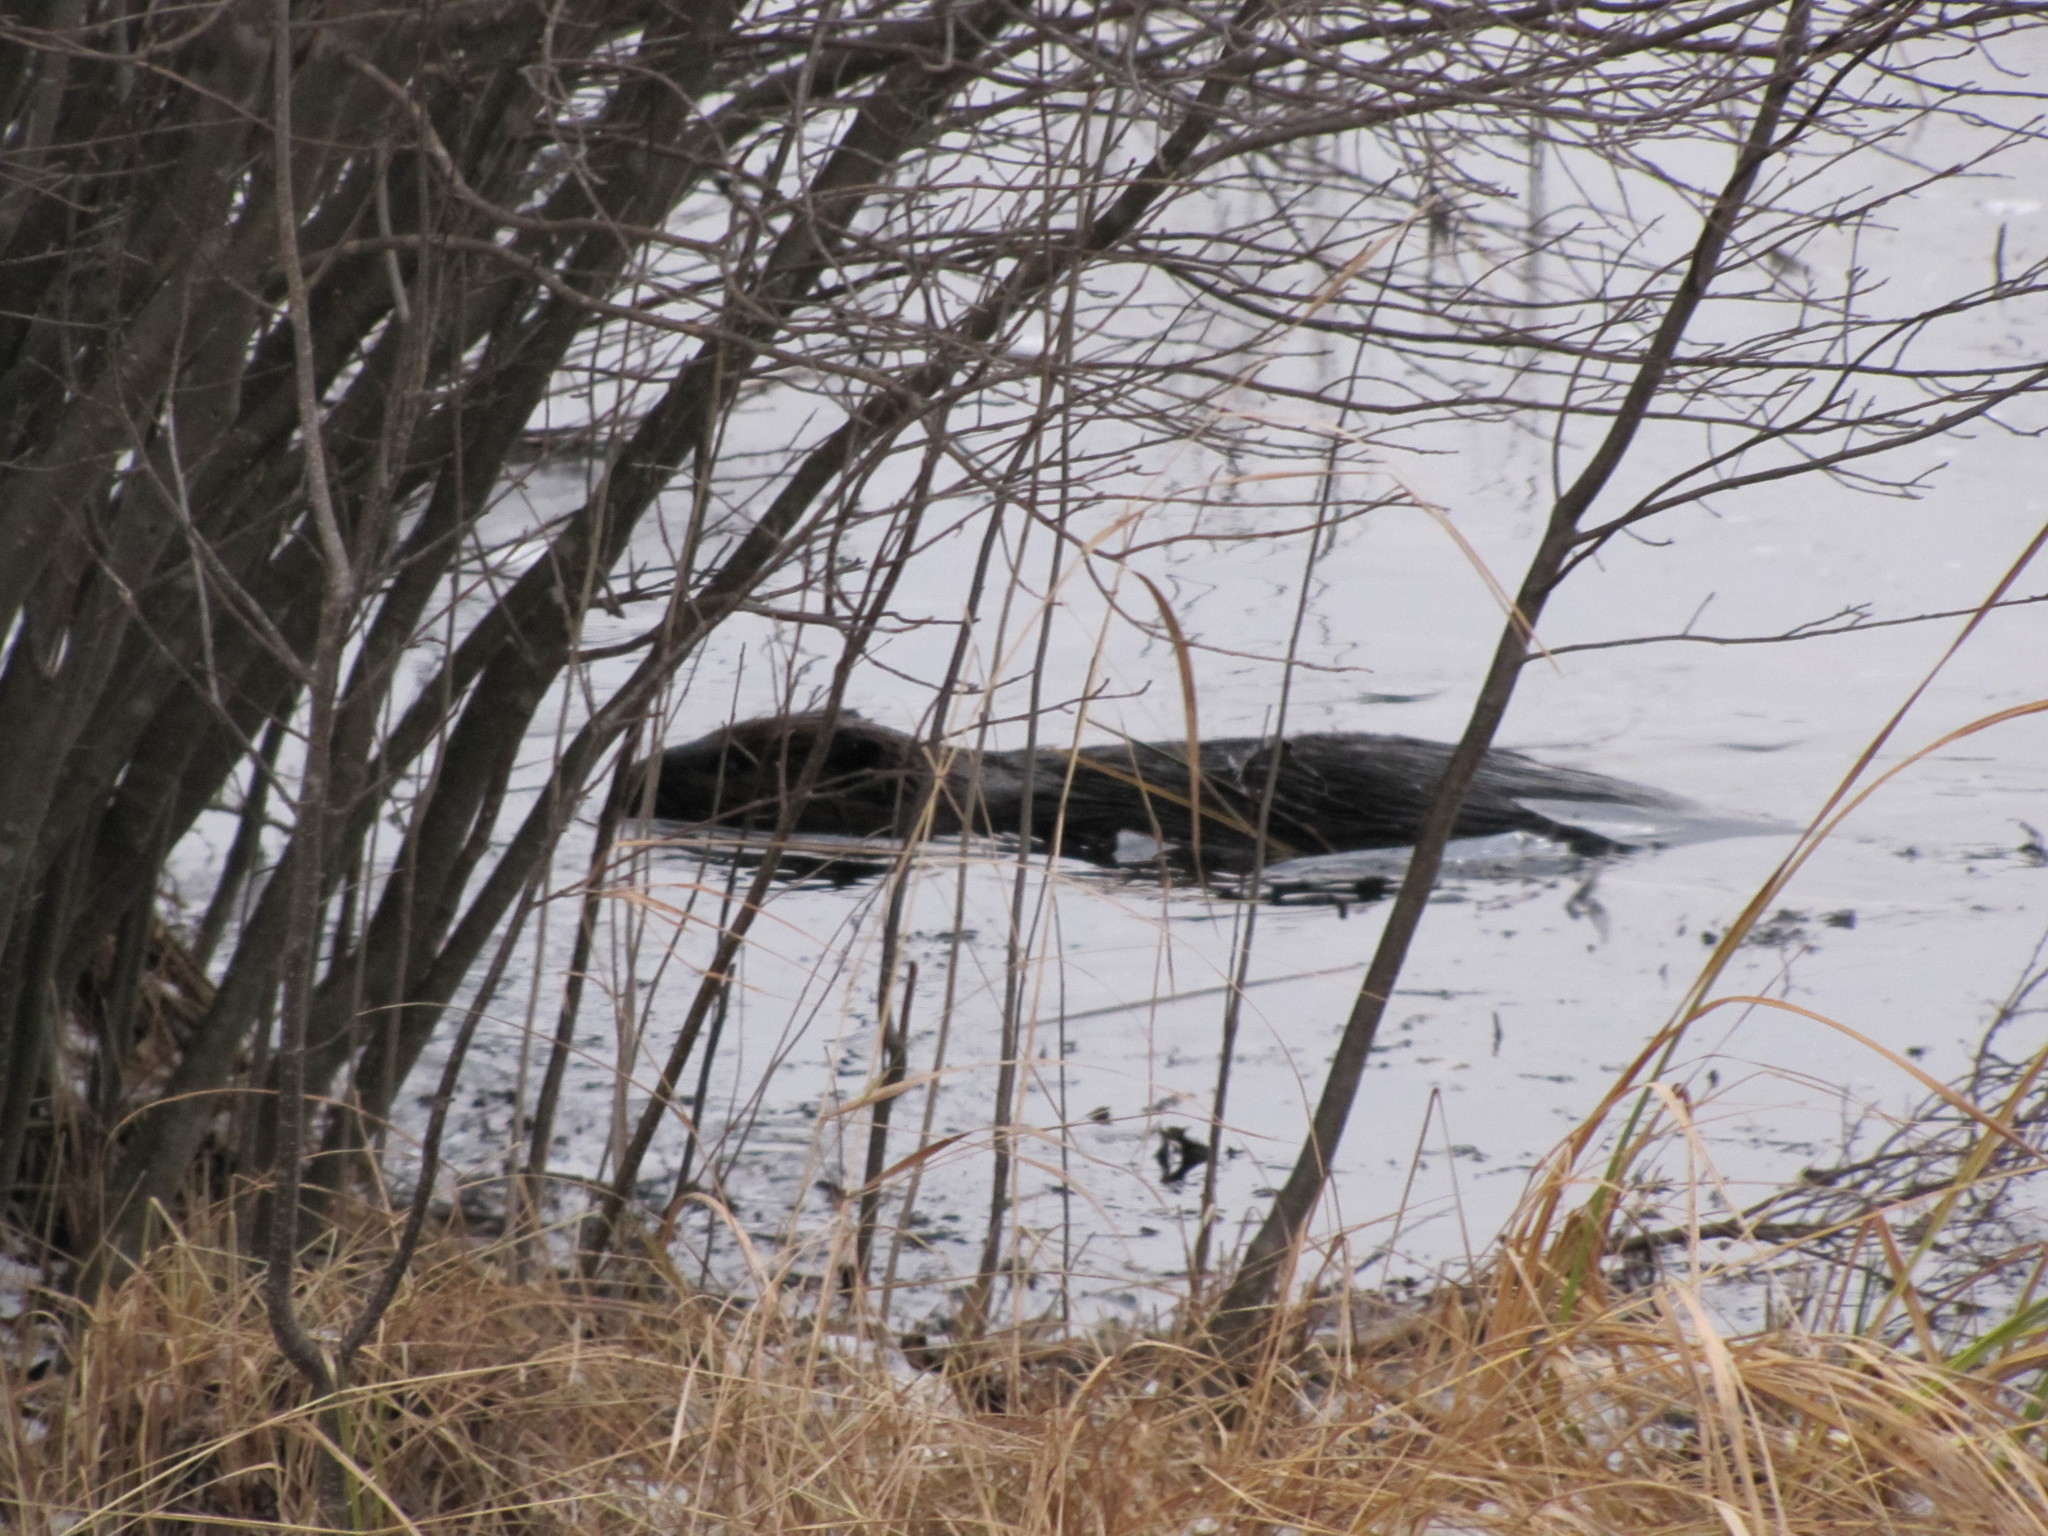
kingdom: Animalia
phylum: Chordata
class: Mammalia
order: Rodentia
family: Castoridae
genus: Castor
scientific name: Castor canadensis
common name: American beaver
